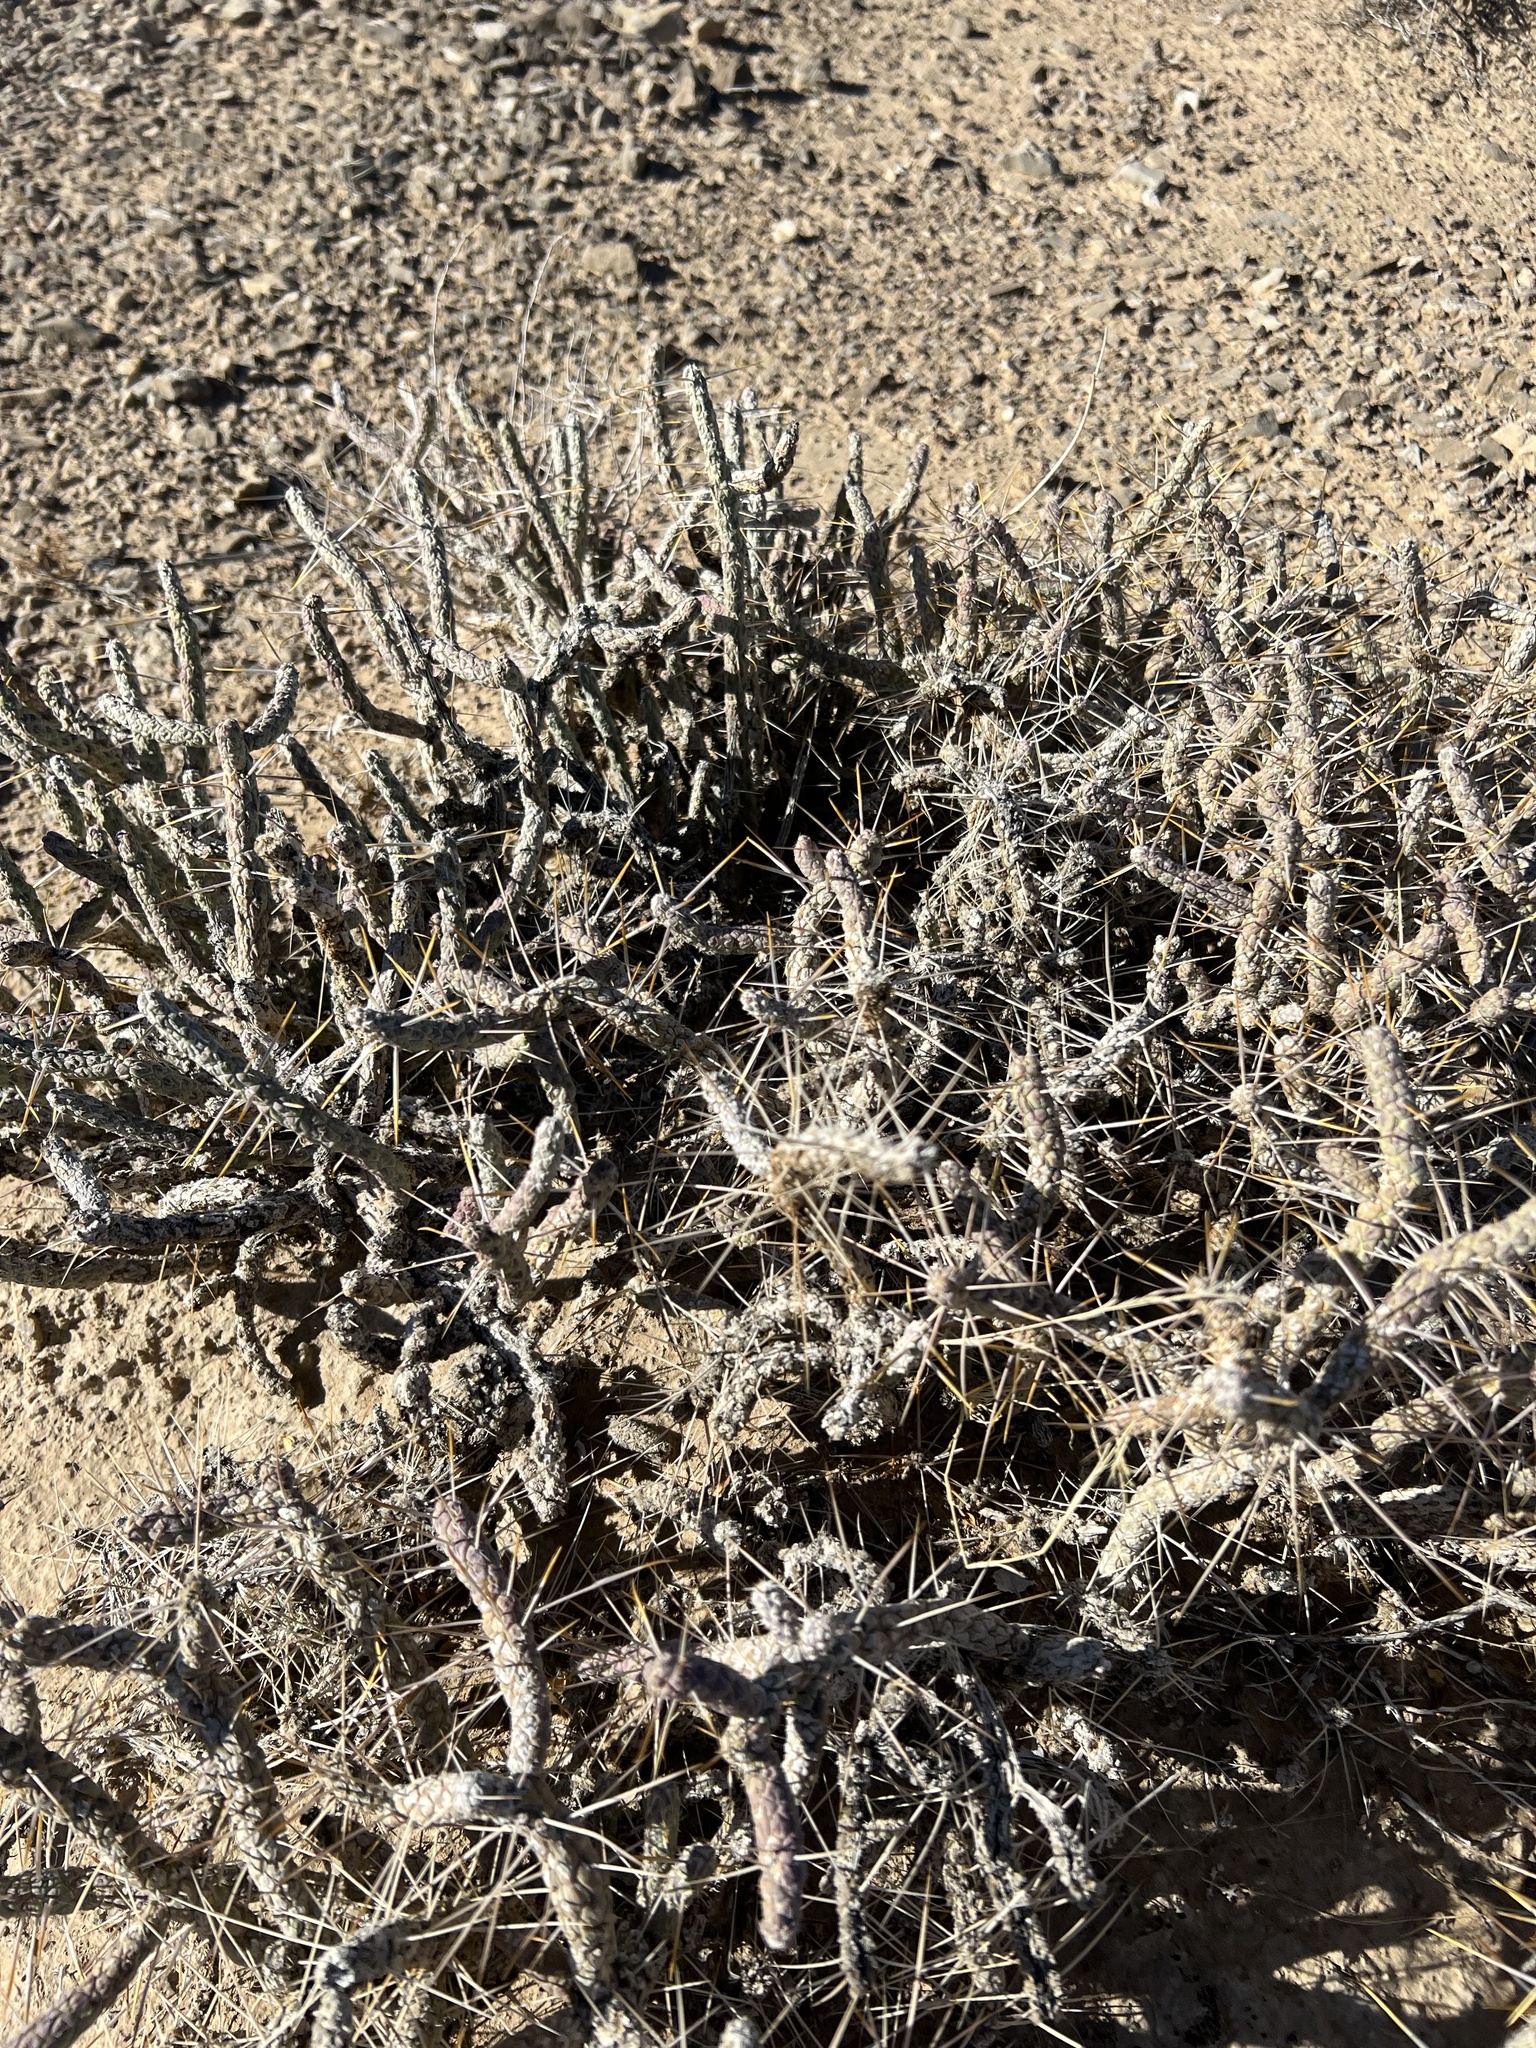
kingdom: Plantae
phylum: Tracheophyta
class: Magnoliopsida
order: Caryophyllales
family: Cactaceae
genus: Cylindropuntia
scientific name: Cylindropuntia ramosissima
